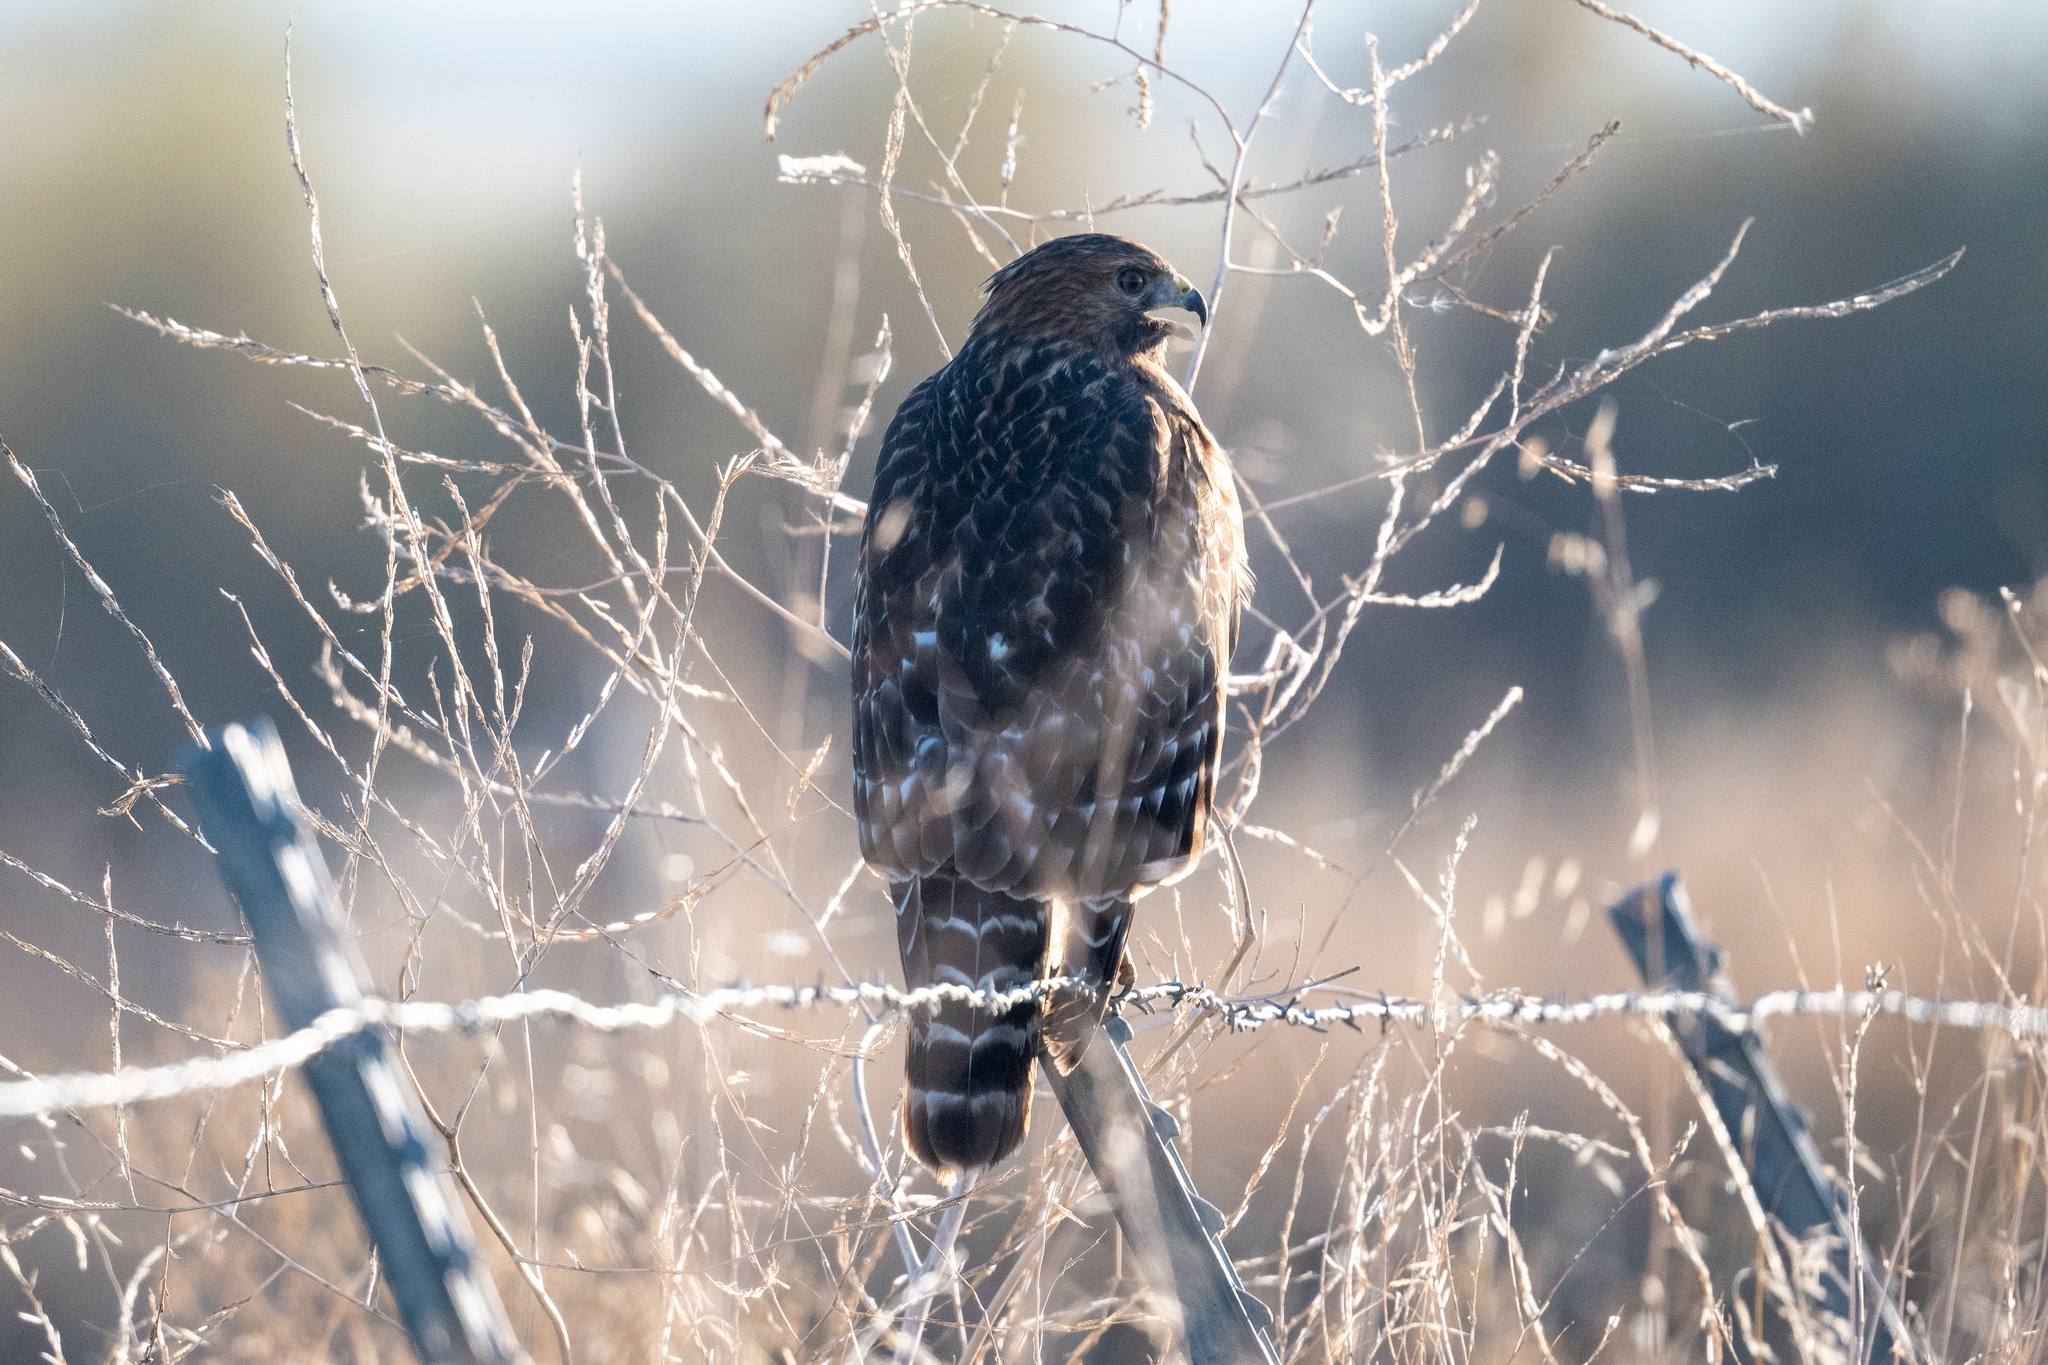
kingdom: Animalia
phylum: Chordata
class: Aves
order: Accipitriformes
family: Accipitridae
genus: Buteo
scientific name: Buteo lineatus
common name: Red-shouldered hawk
